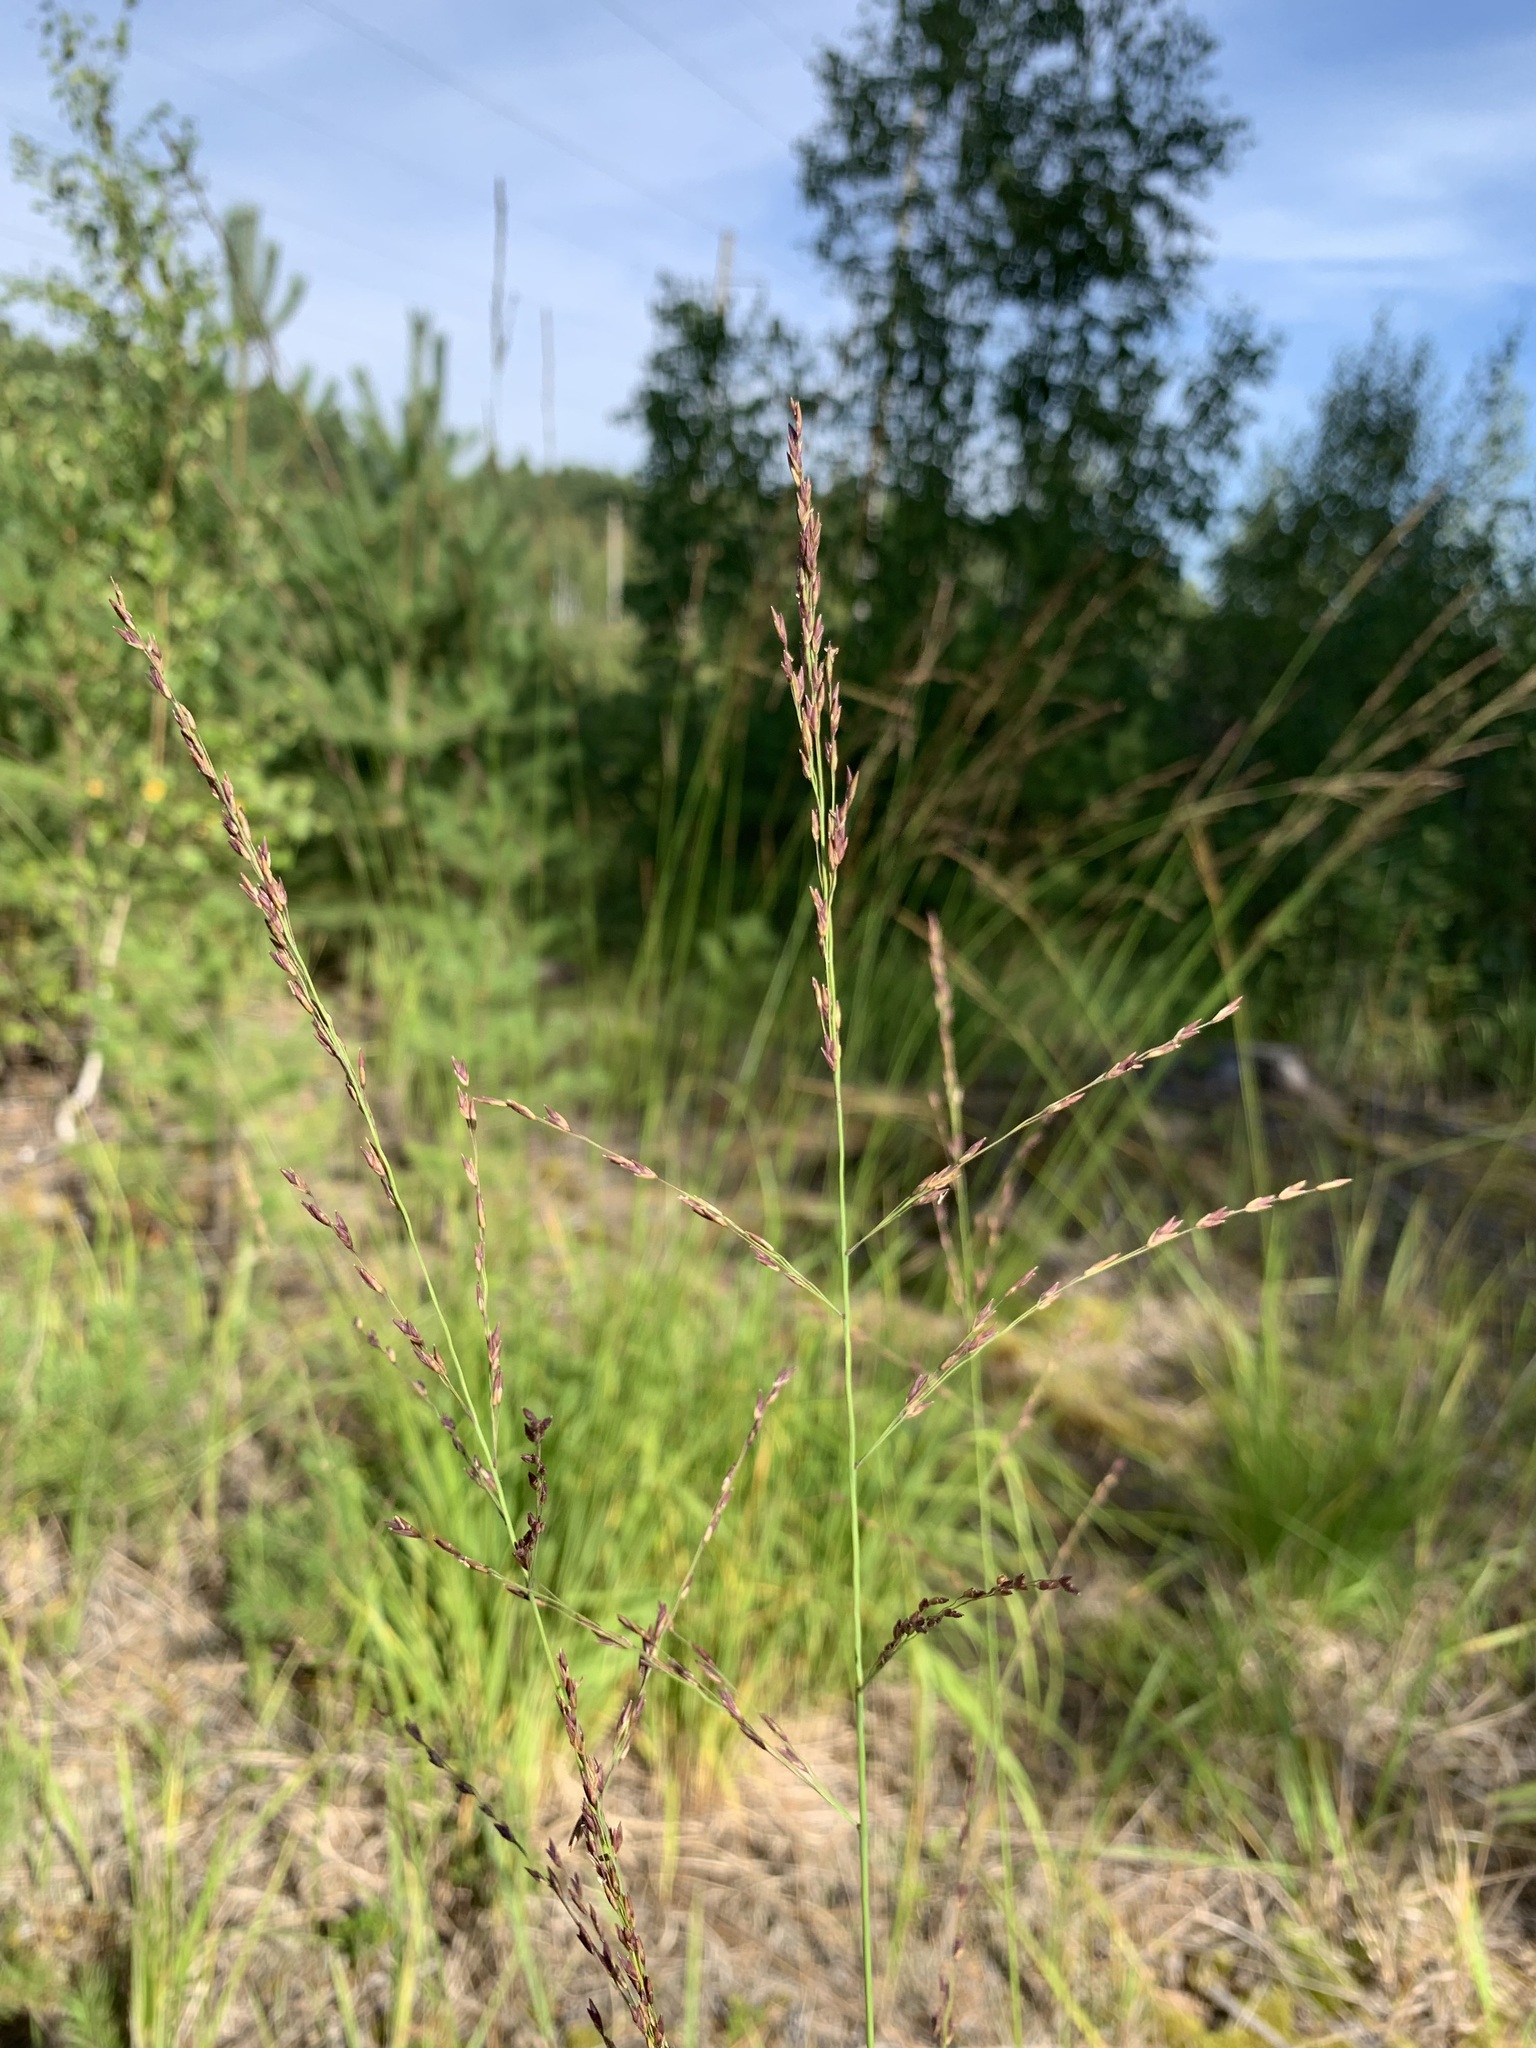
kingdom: Plantae
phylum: Tracheophyta
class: Liliopsida
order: Poales
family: Poaceae
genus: Molinia
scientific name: Molinia caerulea
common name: Purple moor-grass
